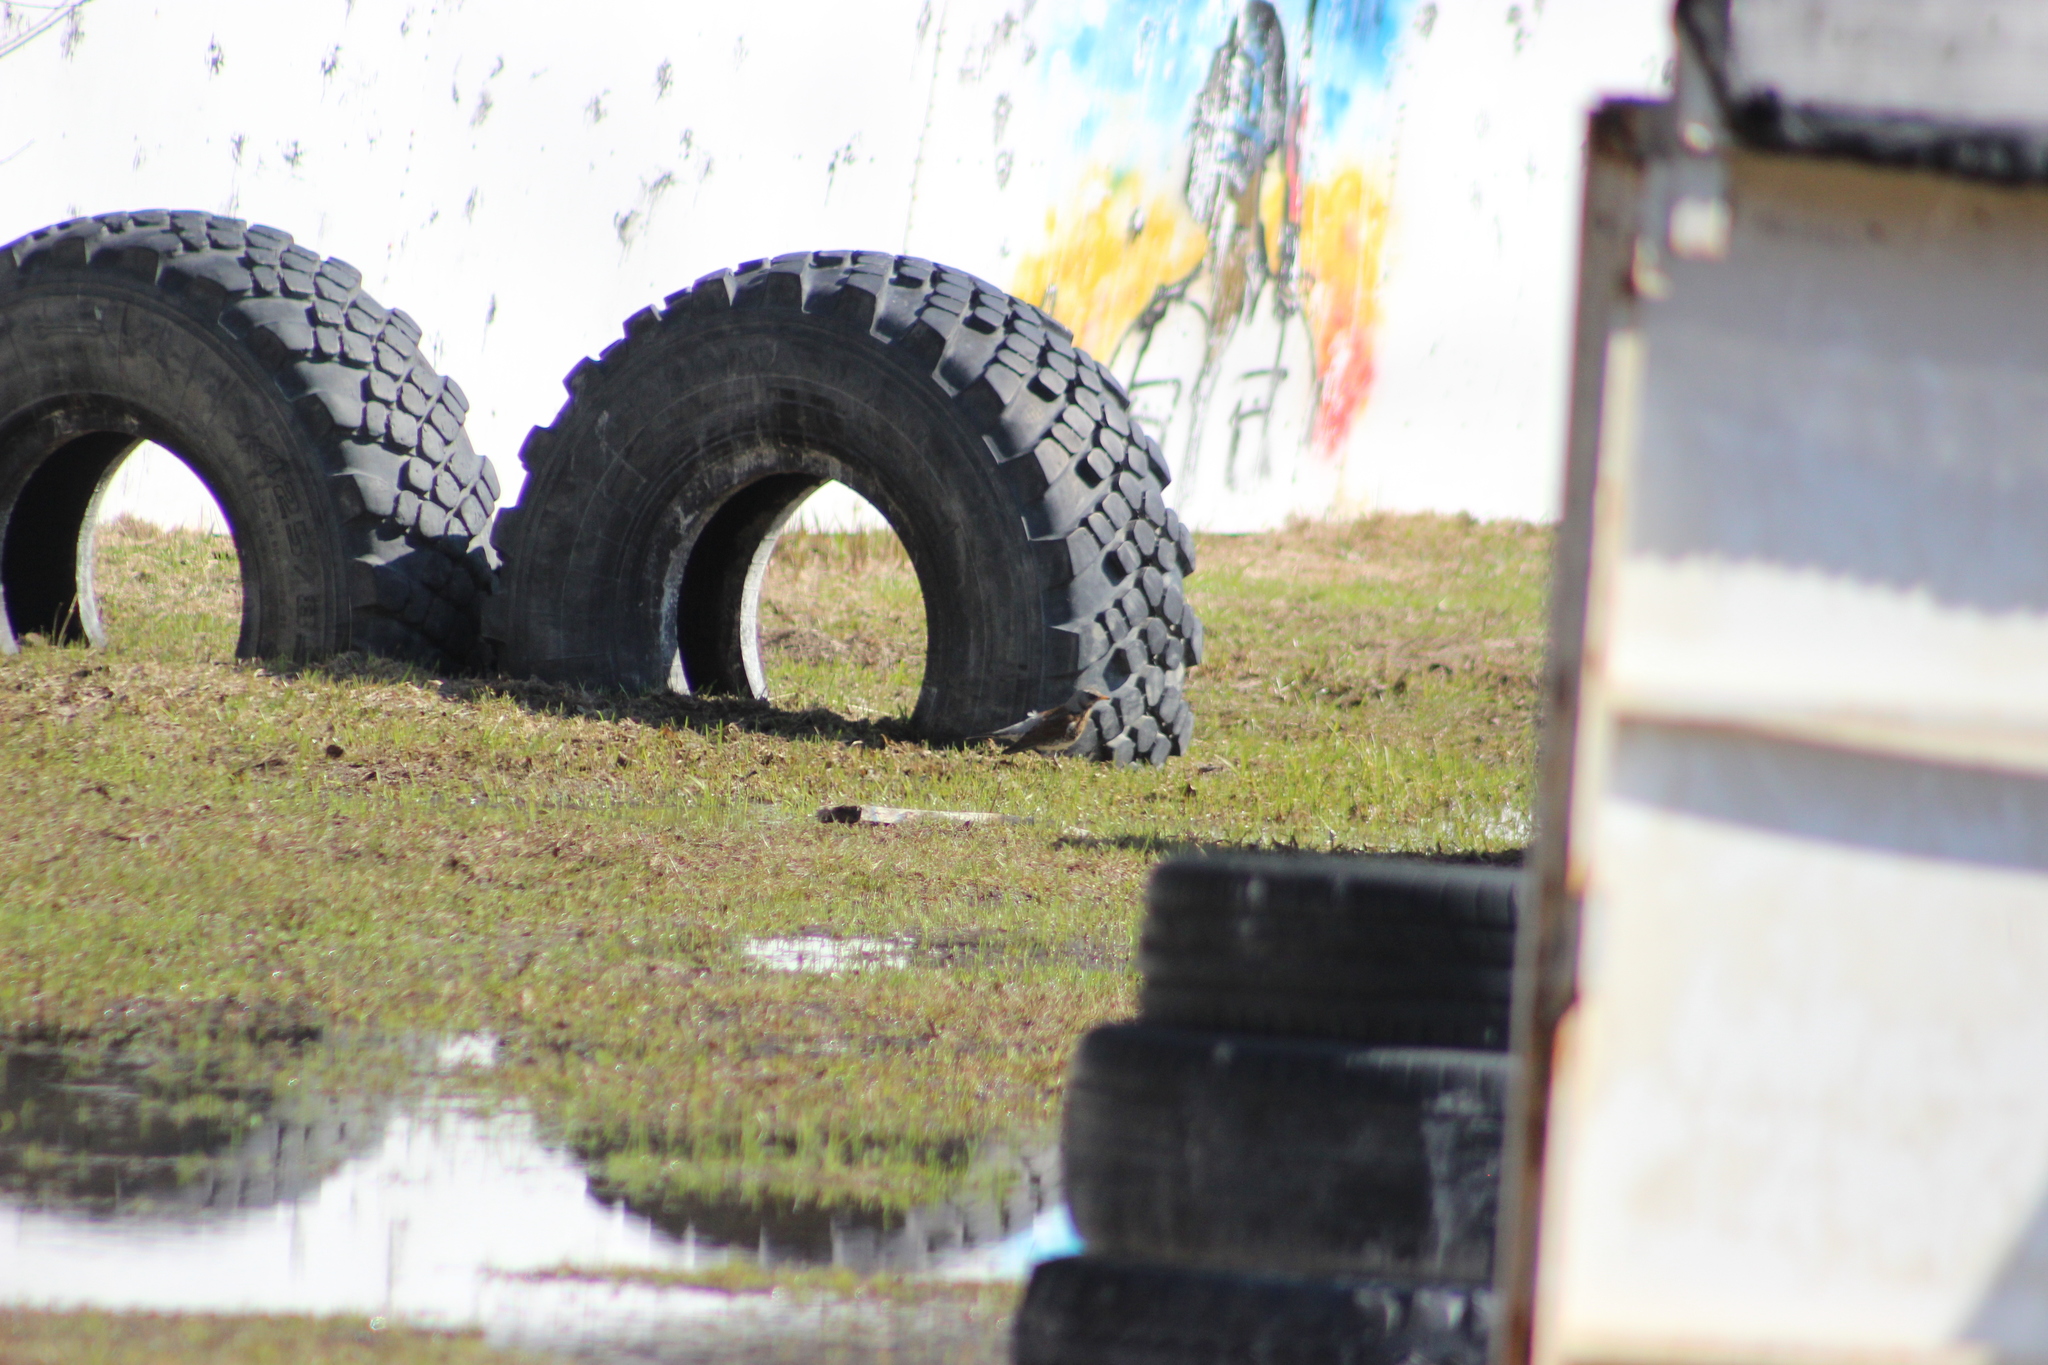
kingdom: Animalia
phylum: Chordata
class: Aves
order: Passeriformes
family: Turdidae
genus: Turdus
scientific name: Turdus pilaris
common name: Fieldfare
